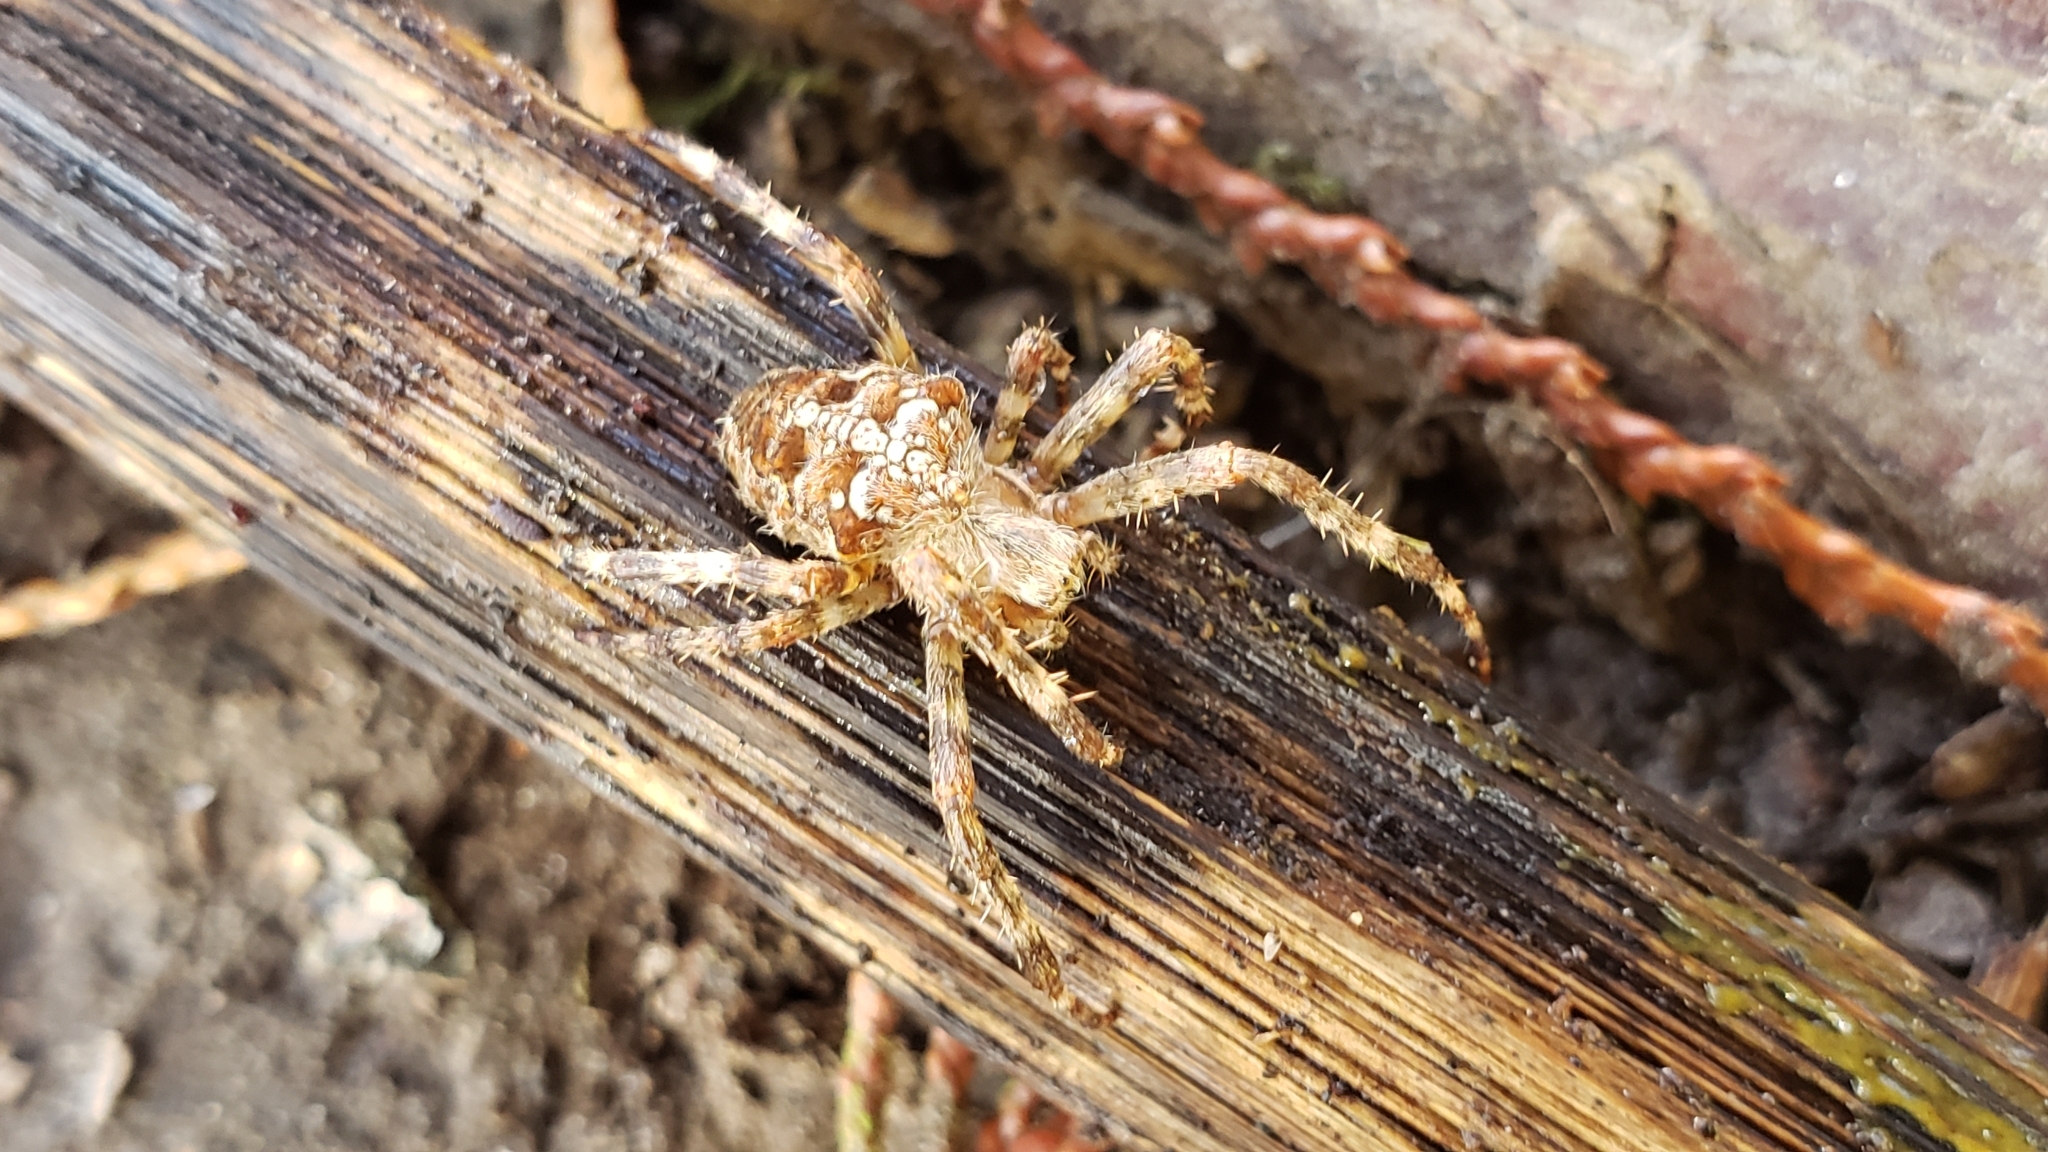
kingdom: Animalia
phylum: Arthropoda
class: Arachnida
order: Araneae
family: Araneidae
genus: Araneus
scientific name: Araneus diadematus
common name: Cross orbweaver
